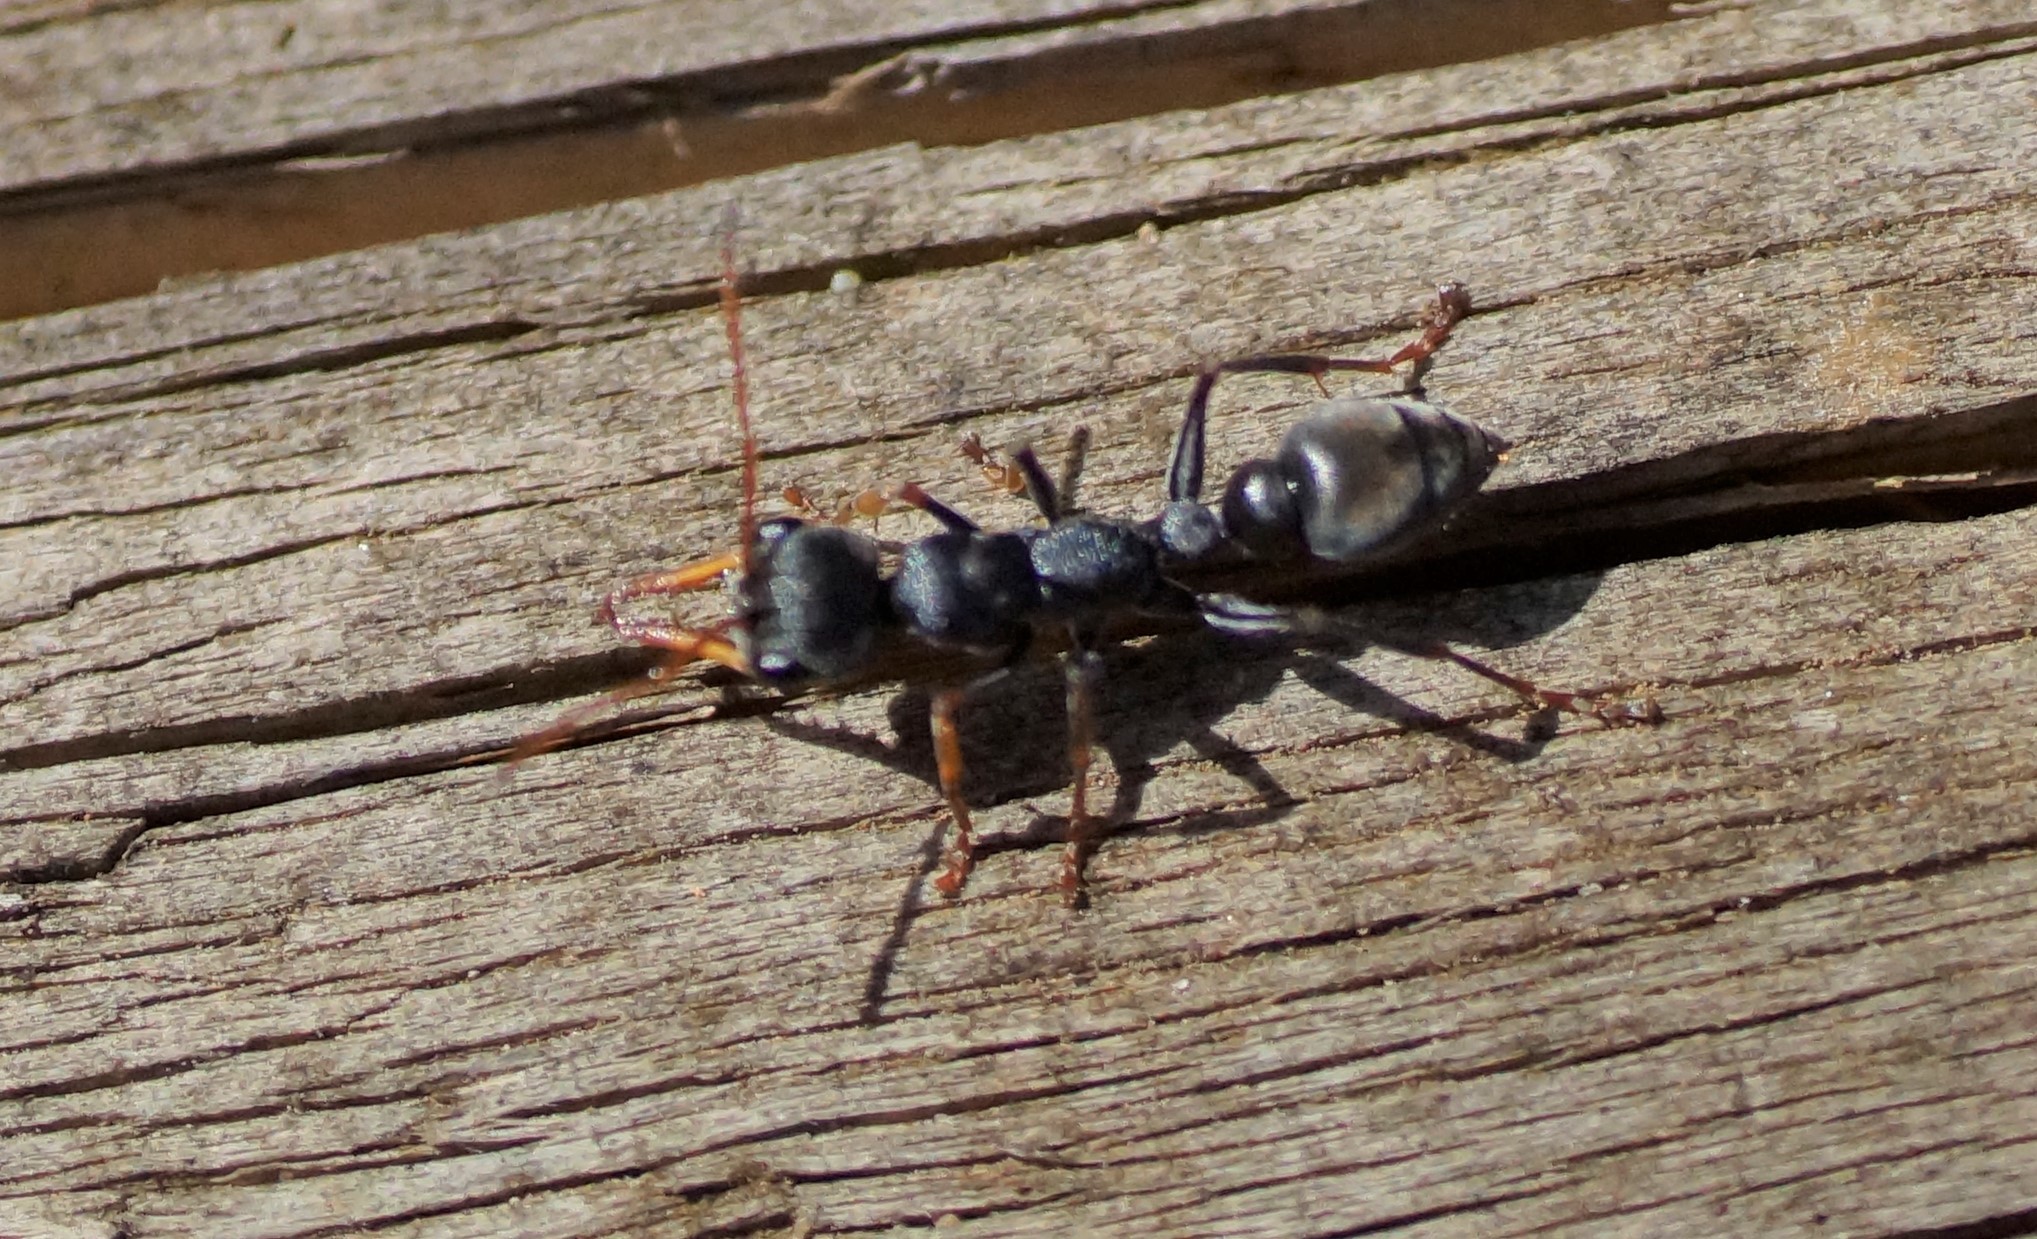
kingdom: Animalia
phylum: Arthropoda
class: Insecta
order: Hymenoptera
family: Formicidae
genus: Myrmecia
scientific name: Myrmecia pilosula
